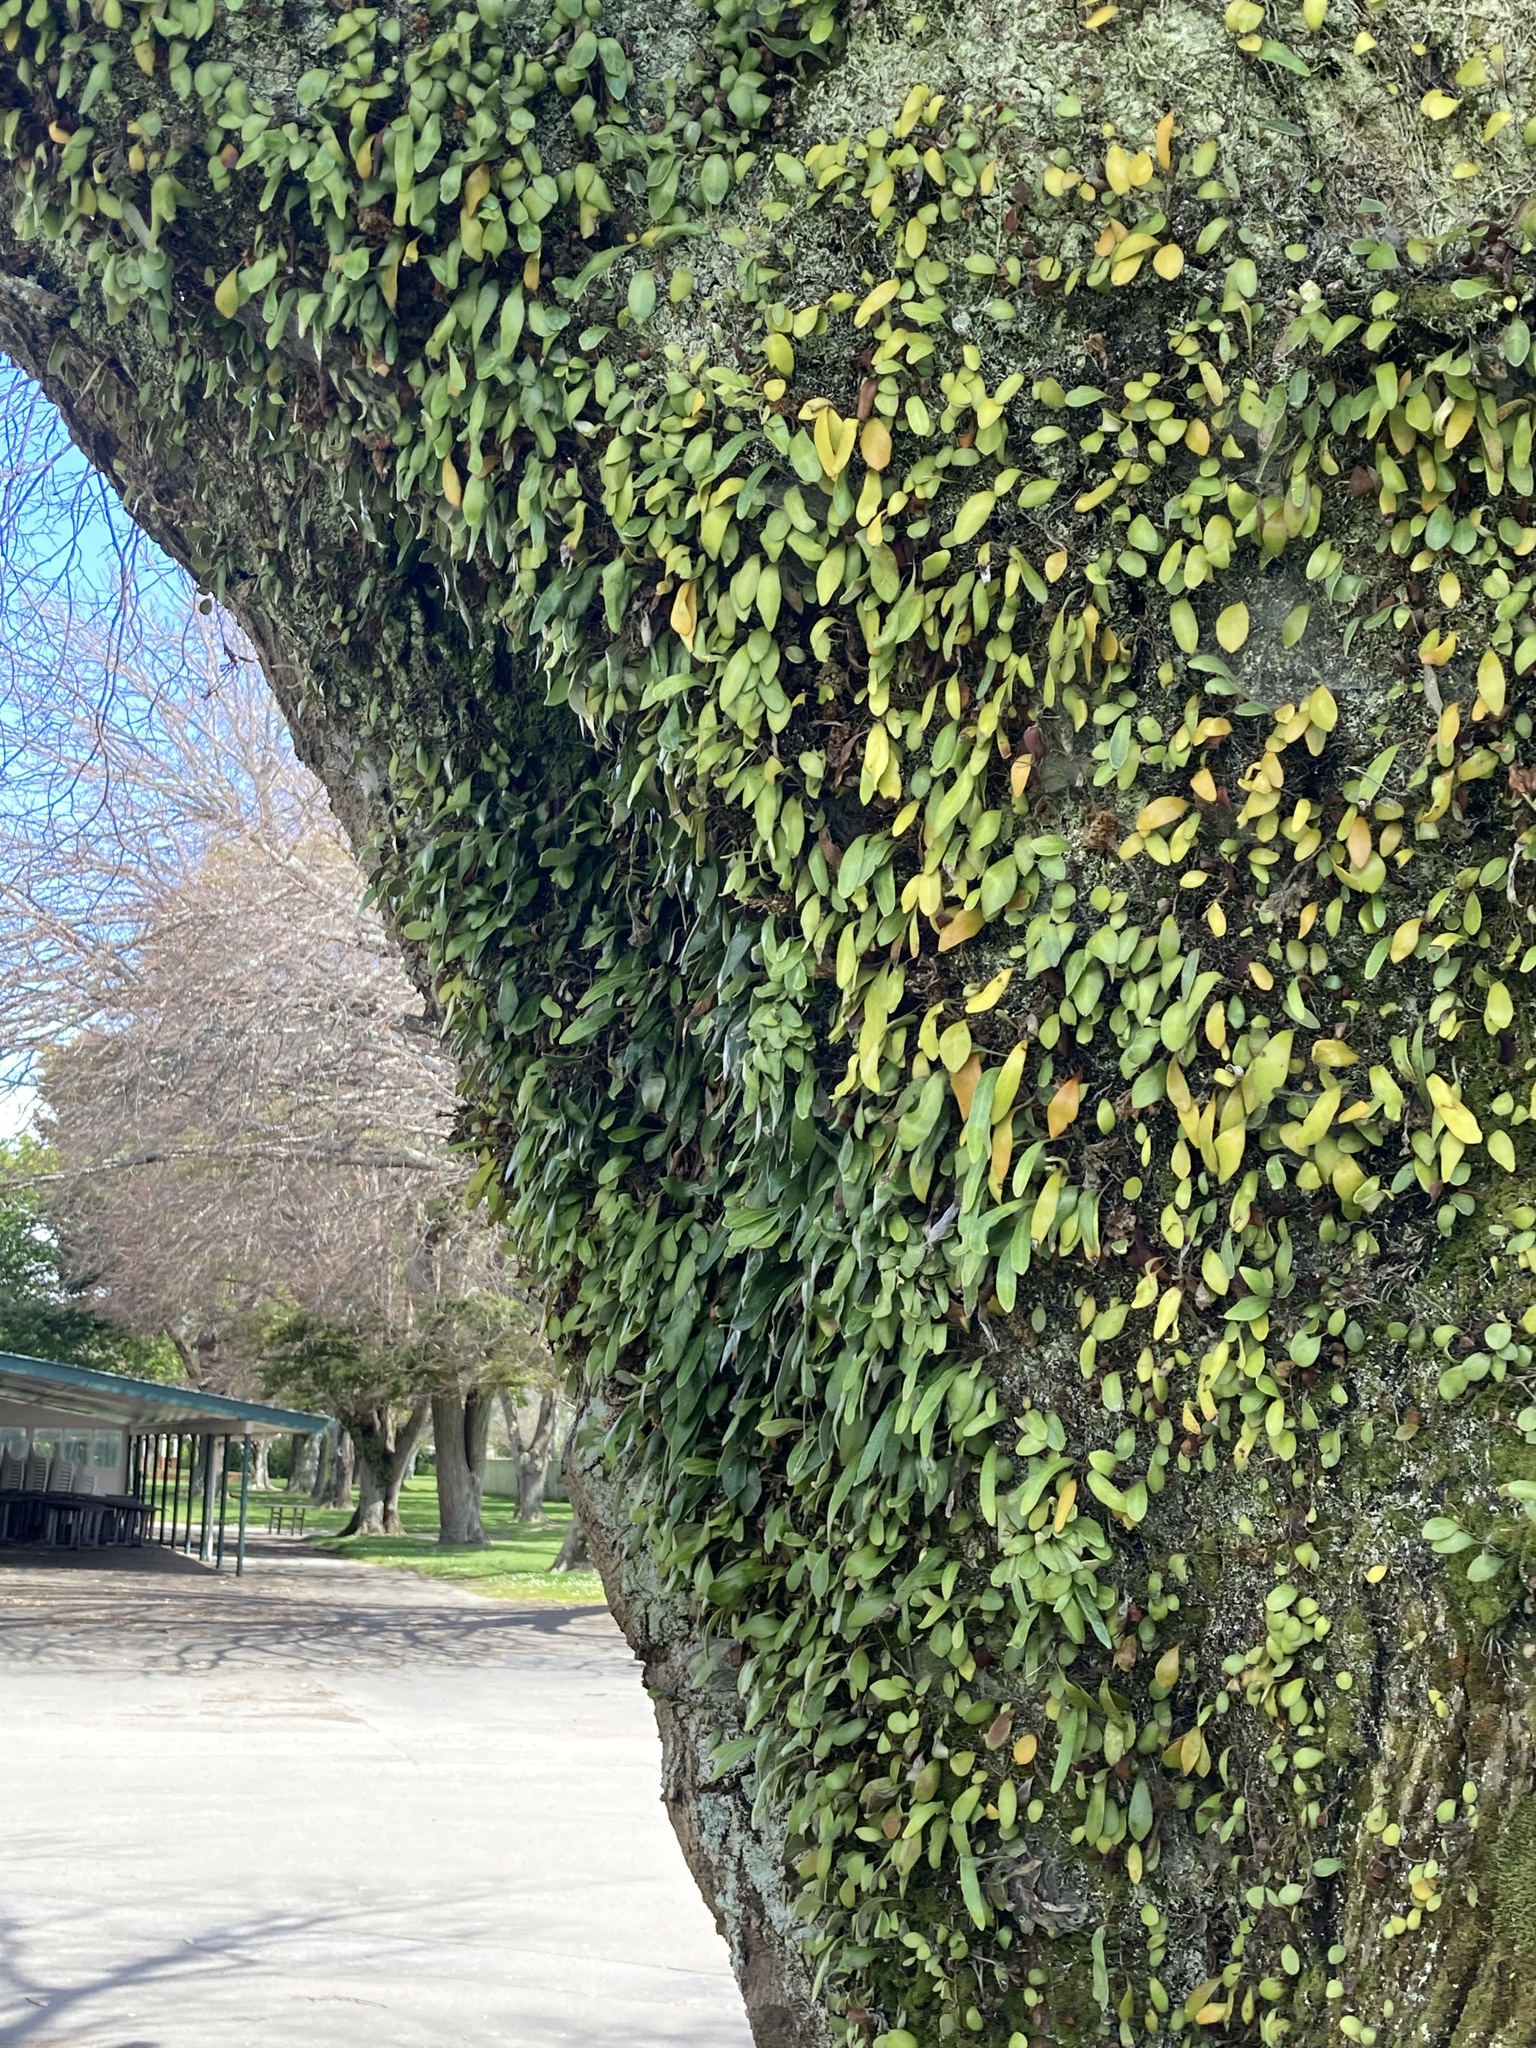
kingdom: Plantae
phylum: Tracheophyta
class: Polypodiopsida
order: Polypodiales
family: Polypodiaceae
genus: Pyrrosia
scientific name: Pyrrosia eleagnifolia
